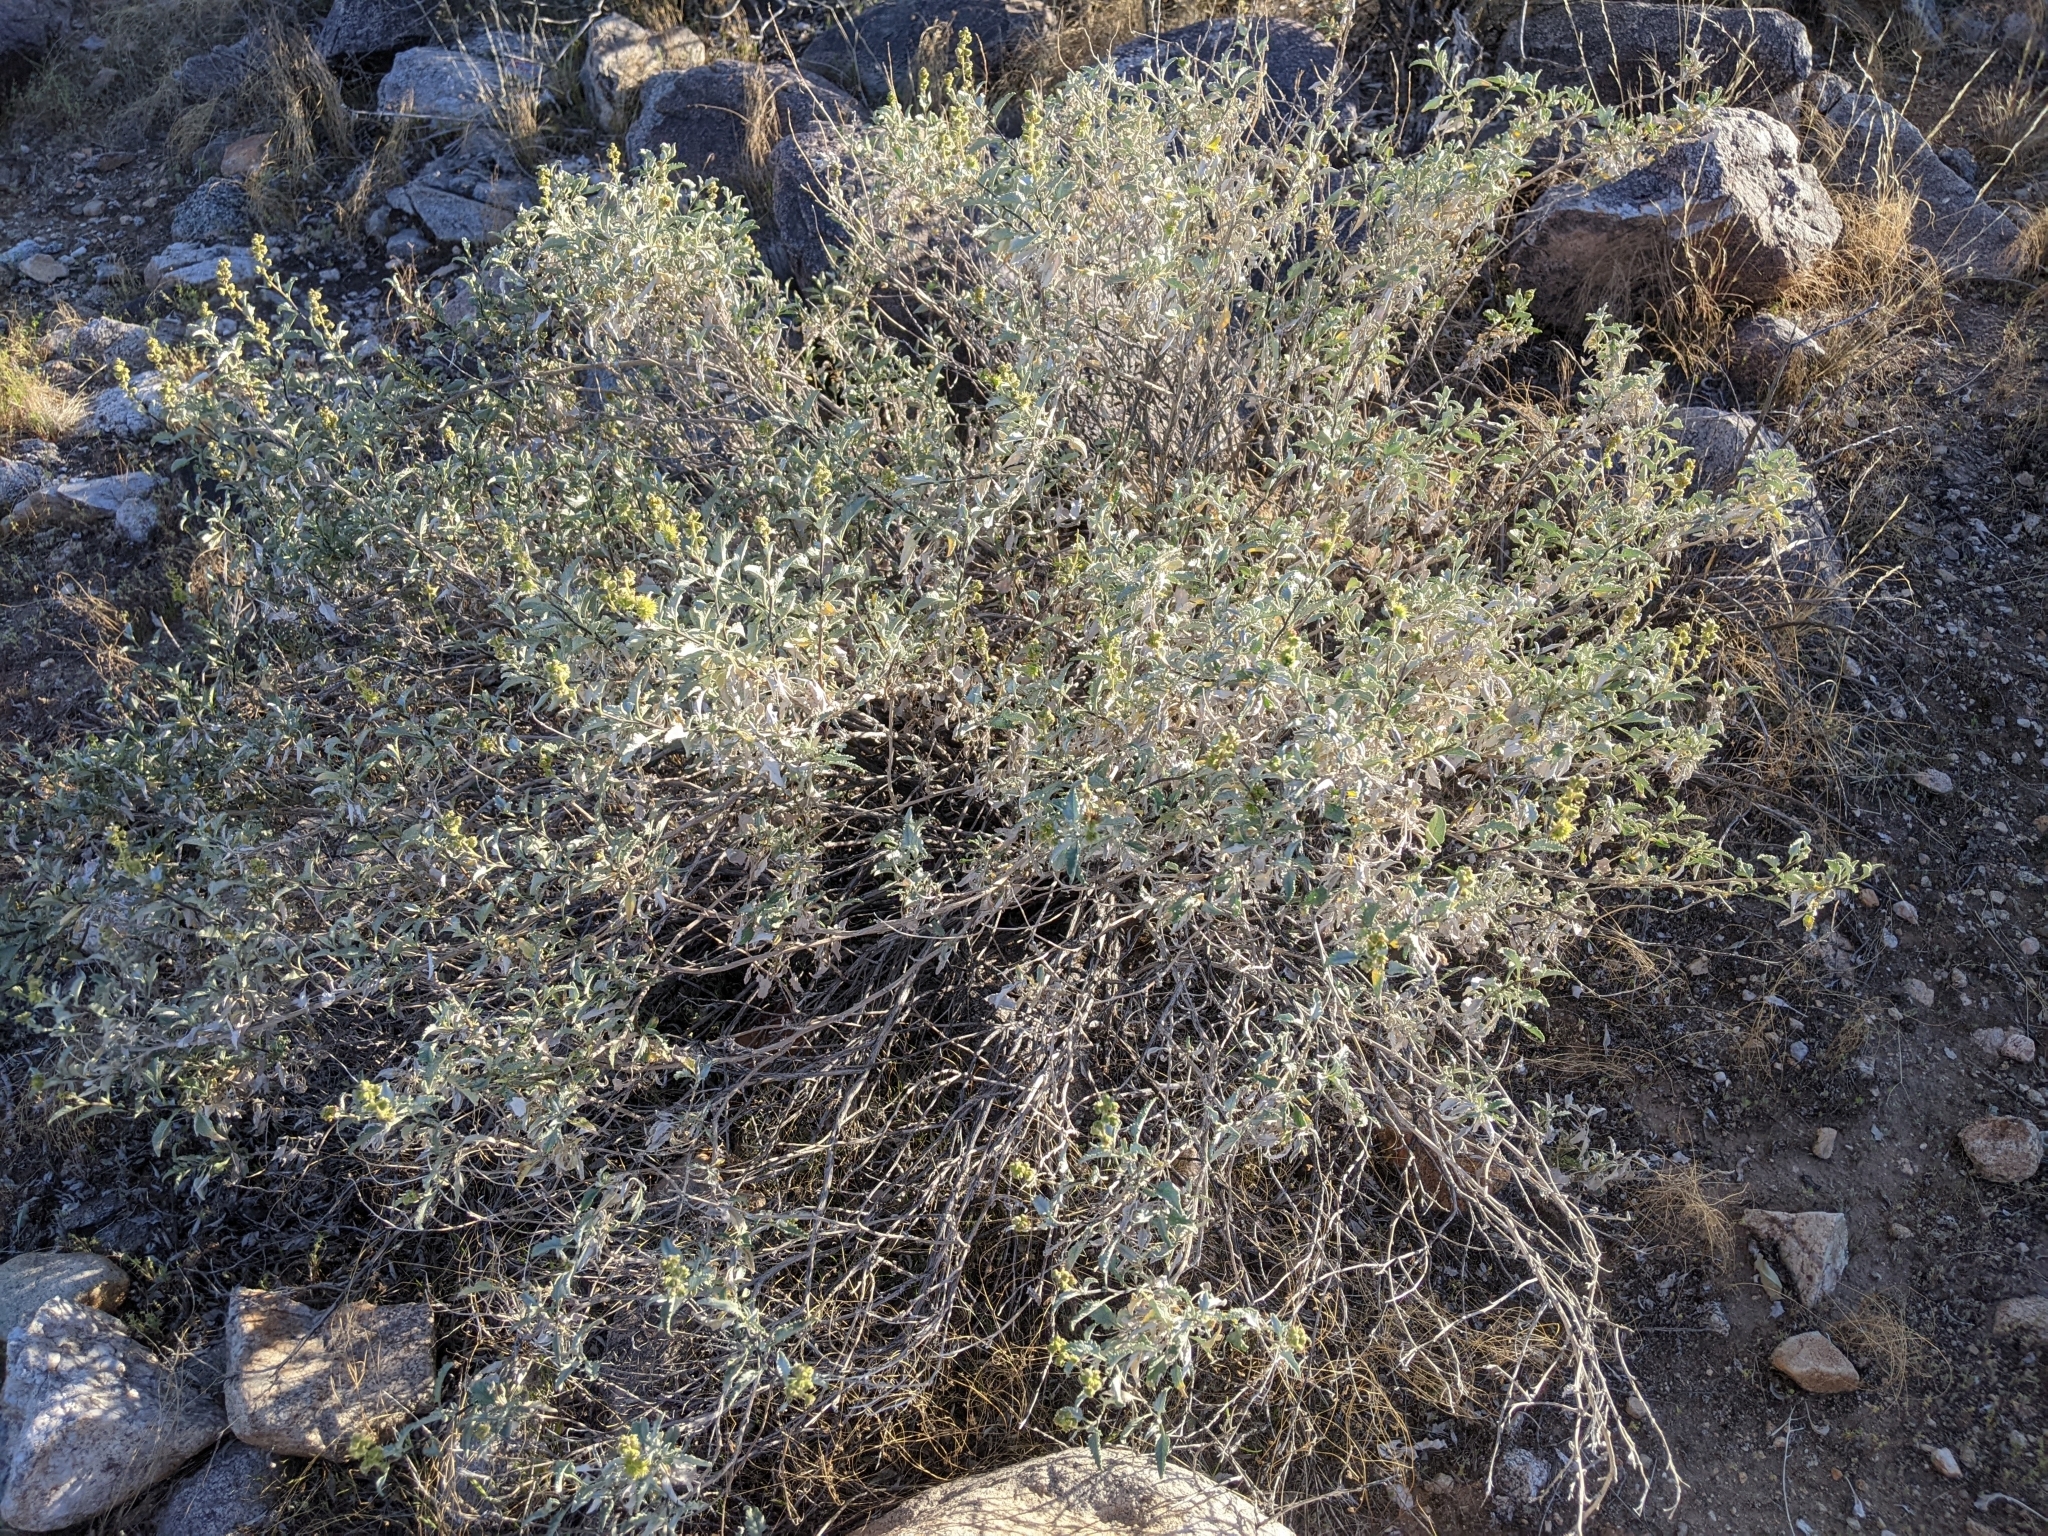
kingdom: Plantae
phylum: Tracheophyta
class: Magnoliopsida
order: Asterales
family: Asteraceae
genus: Ambrosia
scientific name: Ambrosia deltoidea
